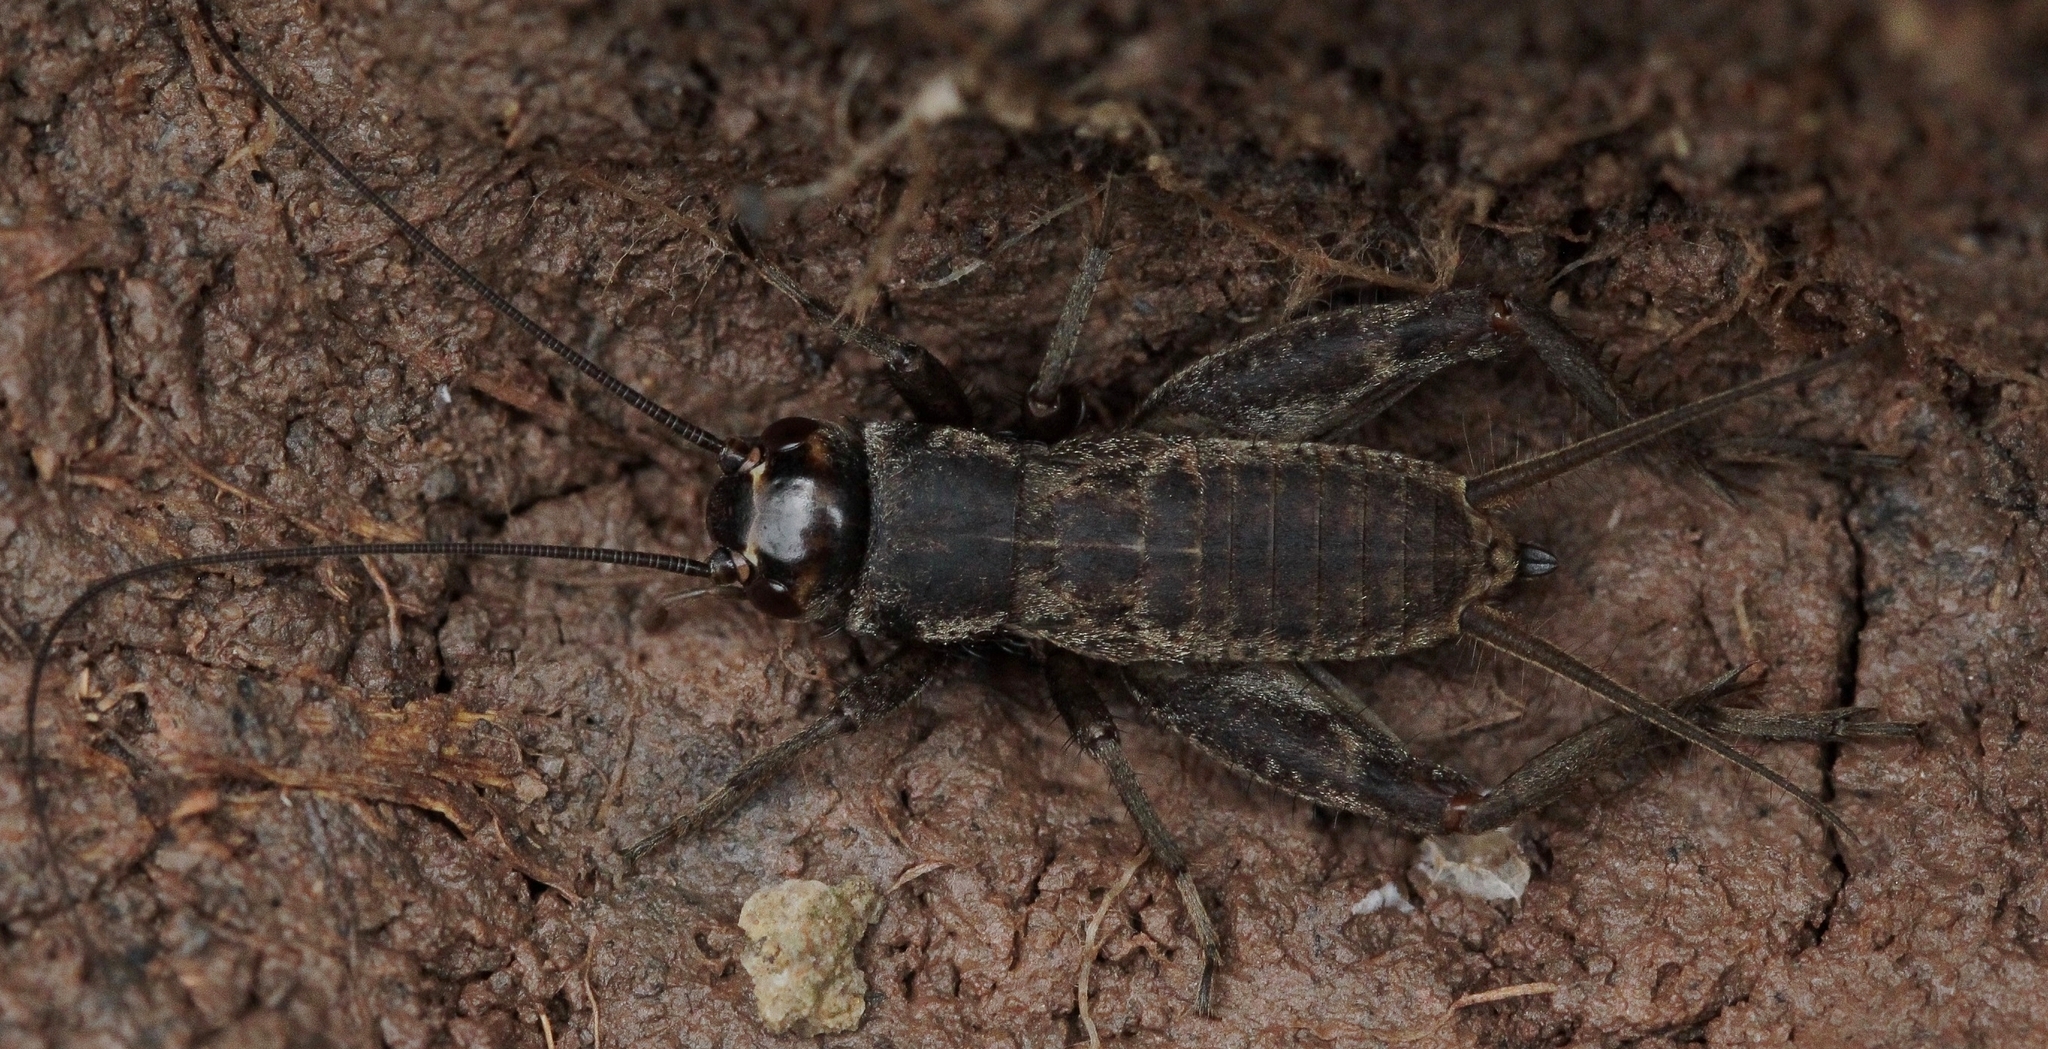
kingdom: Animalia
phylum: Arthropoda
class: Insecta
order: Orthoptera
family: Gryllidae
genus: Modicogryllus
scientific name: Modicogryllus frontalis
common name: Eastern cricket
